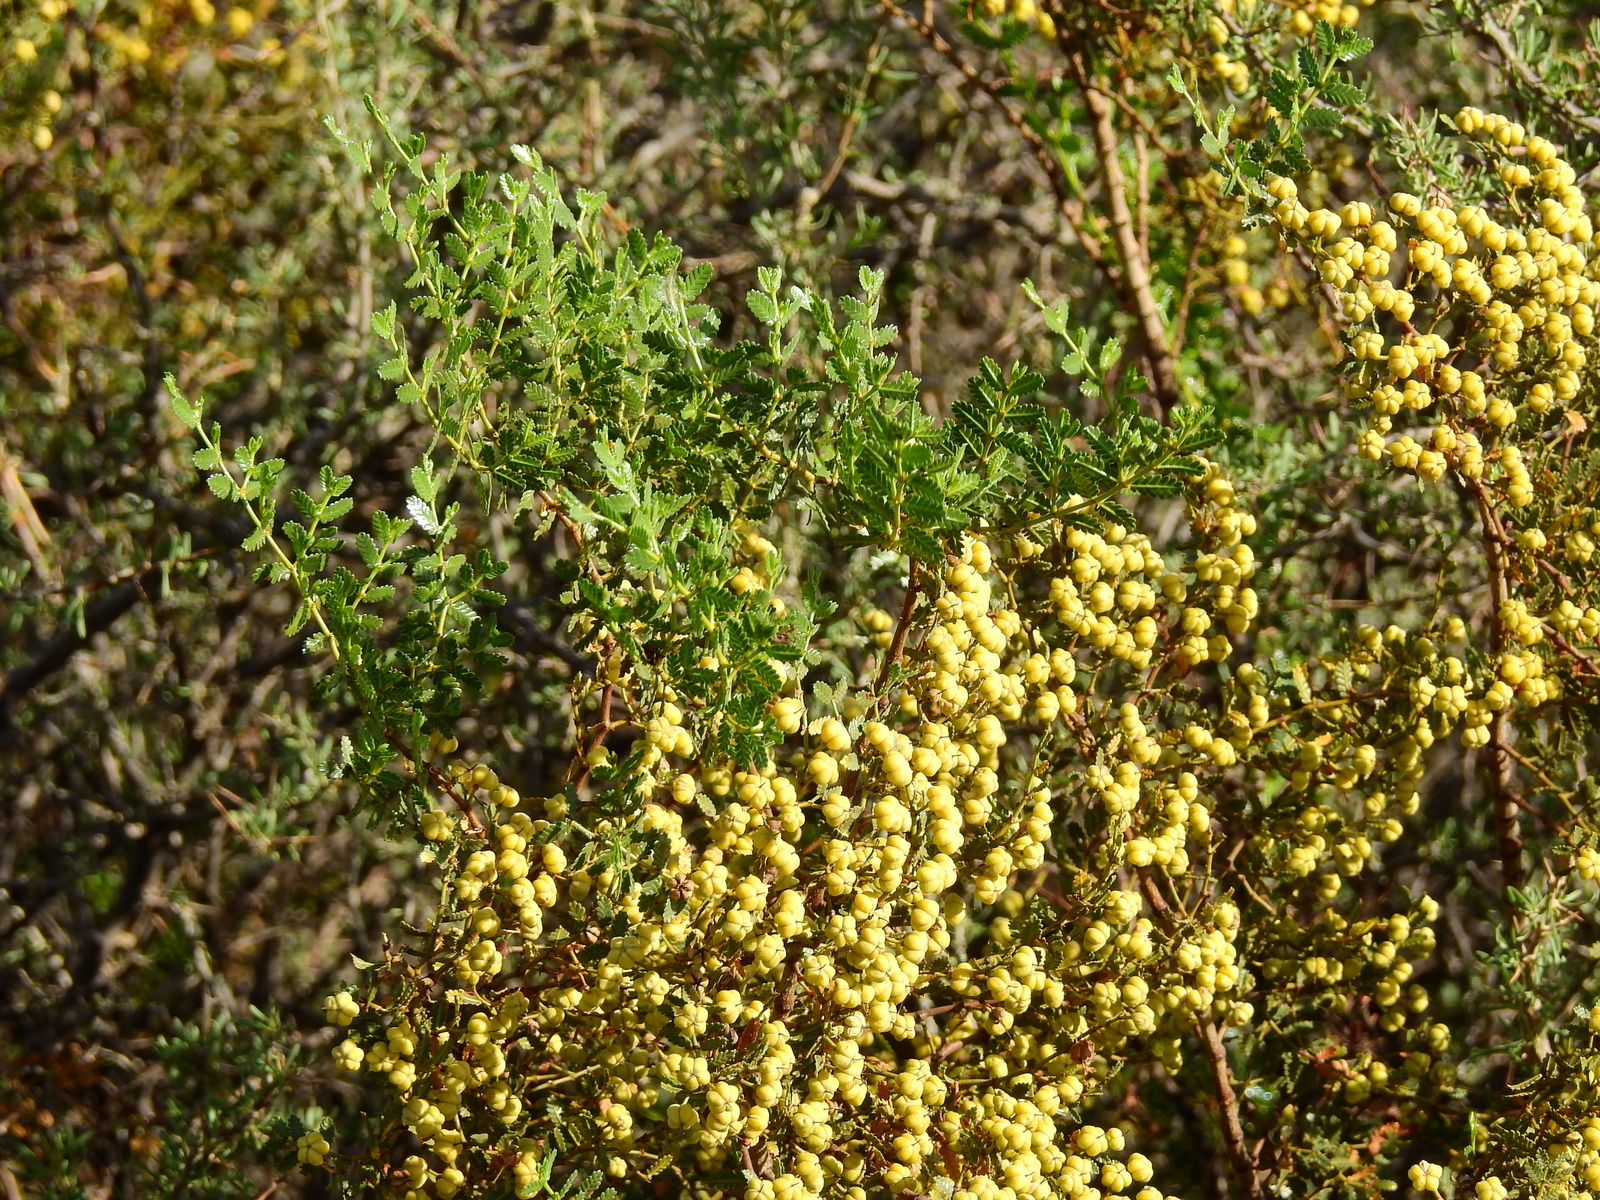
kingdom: Plantae
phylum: Tracheophyta
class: Magnoliopsida
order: Zygophyllales
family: Zygophyllaceae
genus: Larrea
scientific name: Larrea nitida
